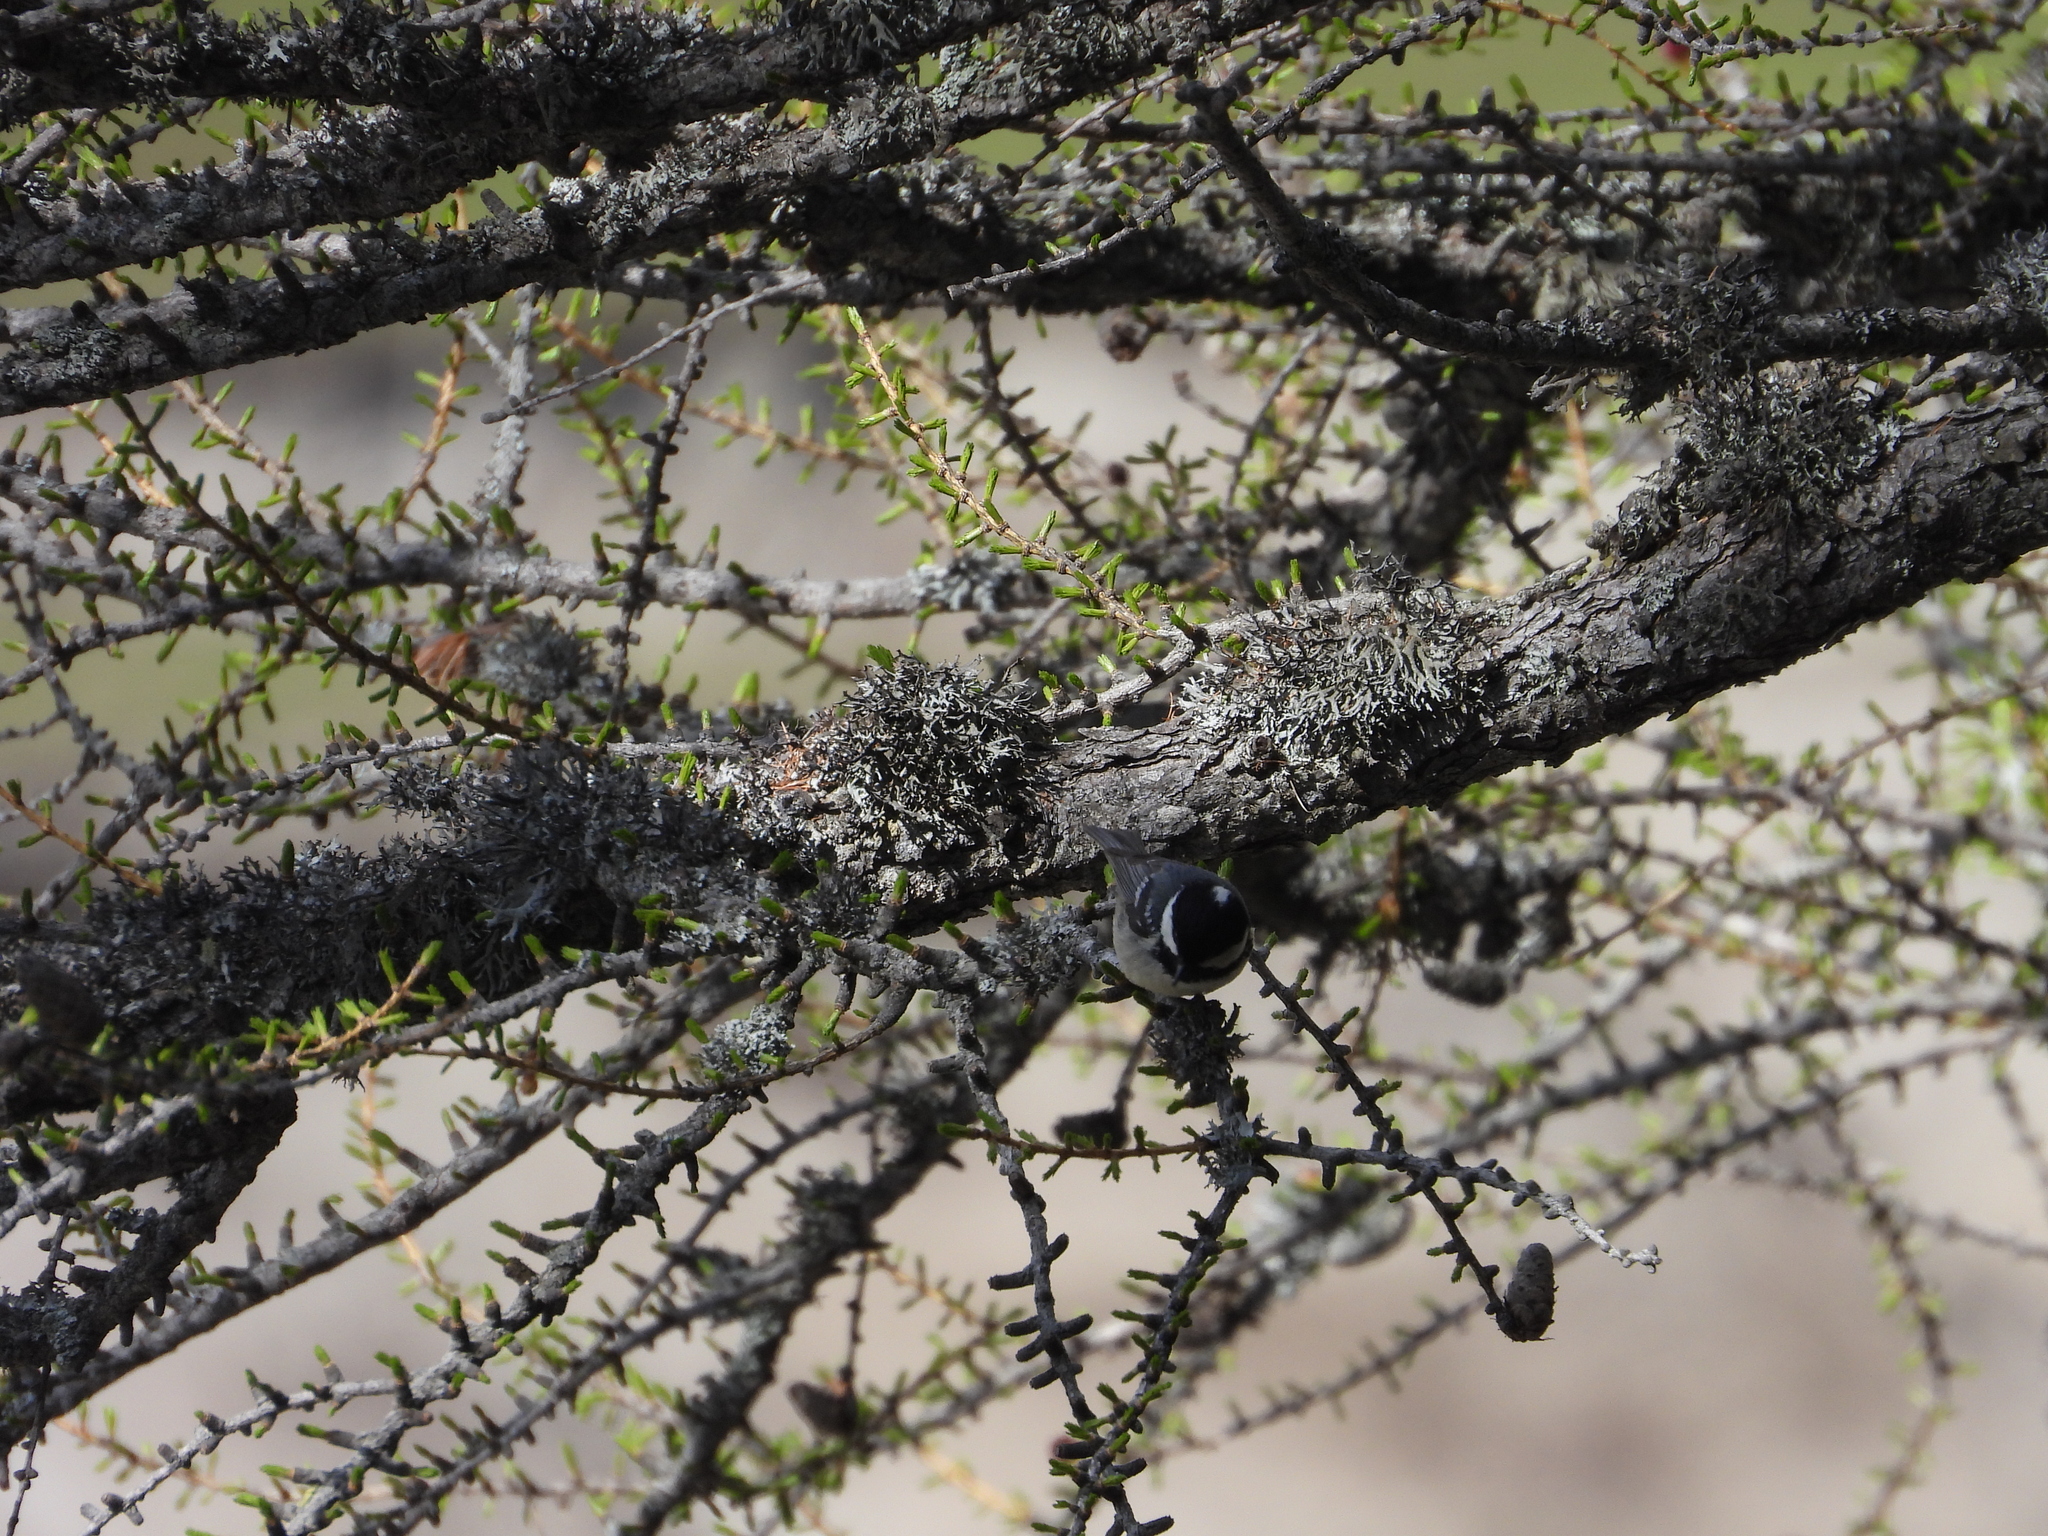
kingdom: Animalia
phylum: Chordata
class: Aves
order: Passeriformes
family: Paridae
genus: Periparus
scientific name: Periparus ater
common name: Coal tit
